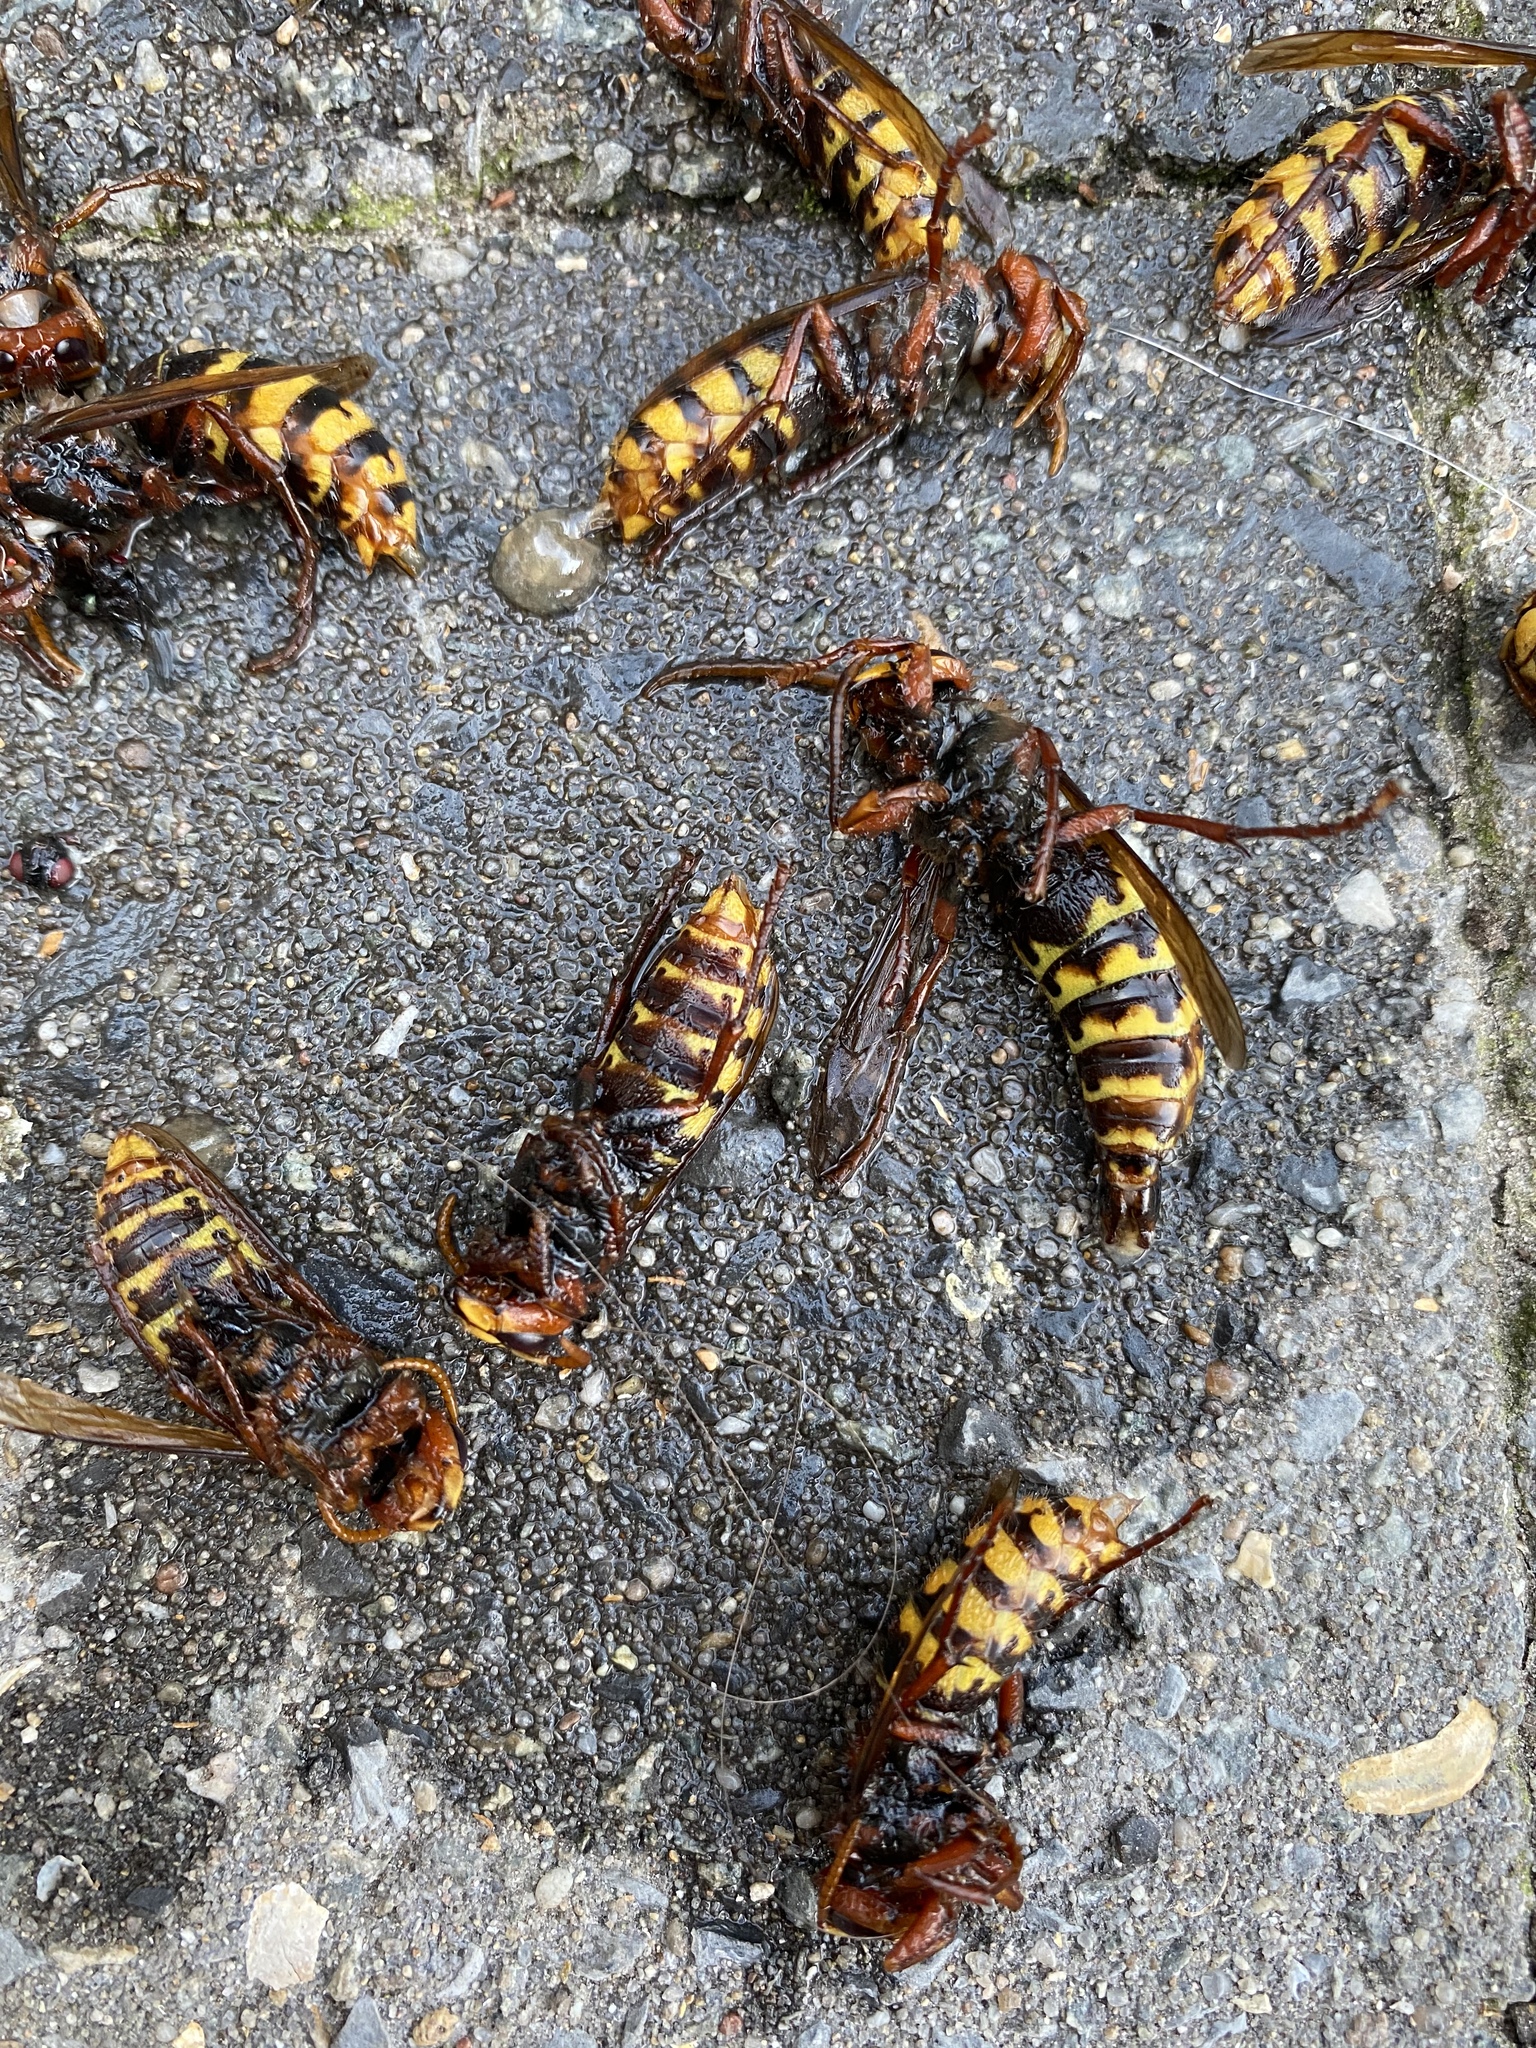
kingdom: Animalia
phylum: Arthropoda
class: Insecta
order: Hymenoptera
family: Vespidae
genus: Vespa
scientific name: Vespa crabro
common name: Hornet
